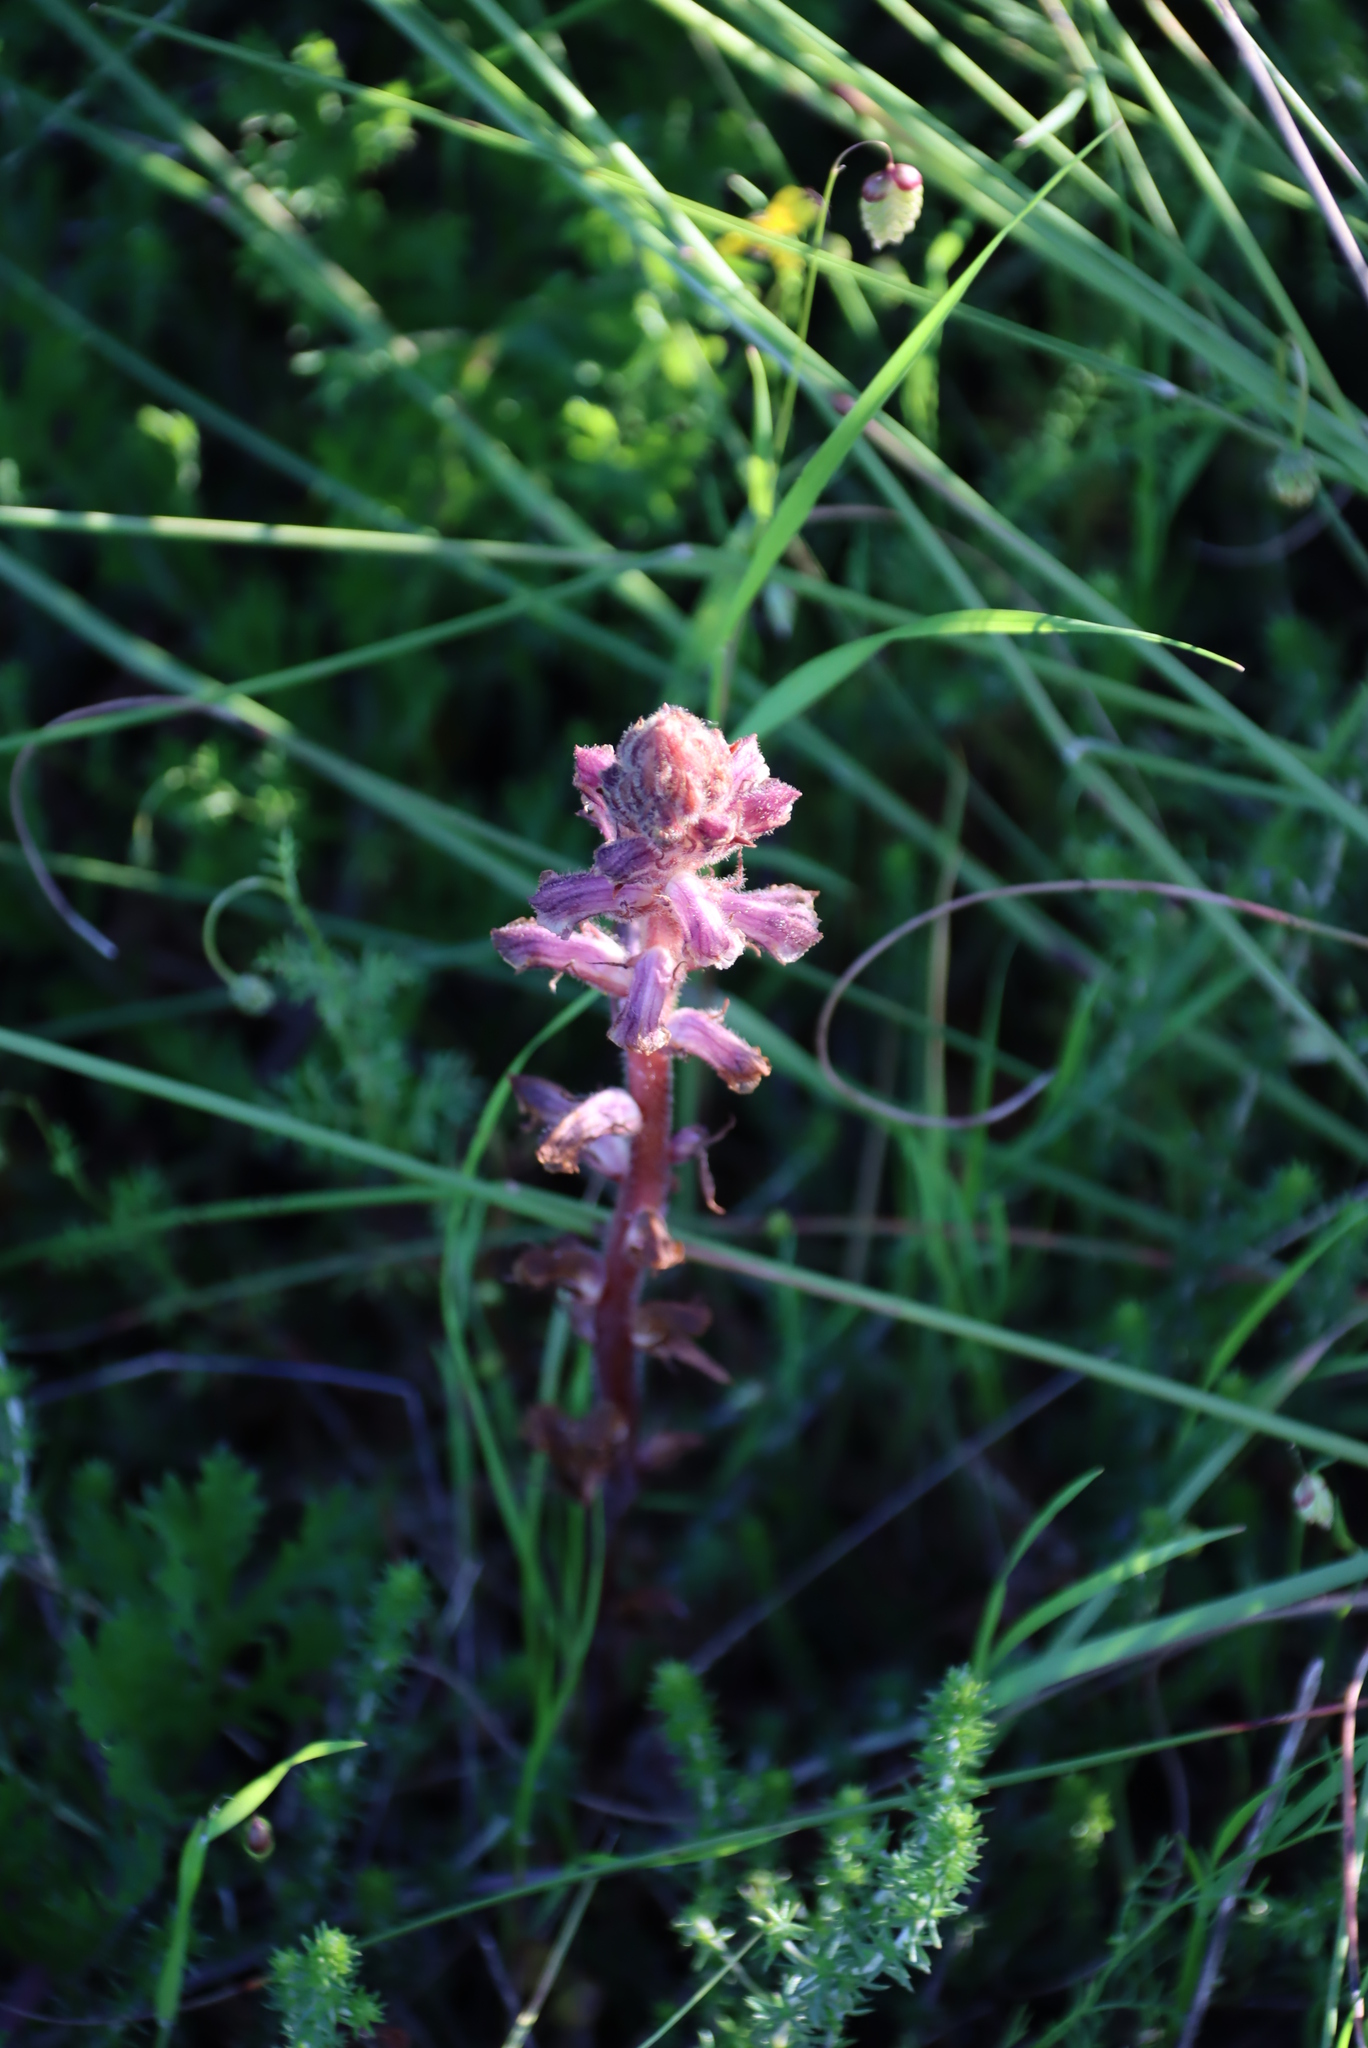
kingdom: Plantae
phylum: Tracheophyta
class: Magnoliopsida
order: Lamiales
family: Orobanchaceae
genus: Orobanche
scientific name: Orobanche minor
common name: Common broomrape
